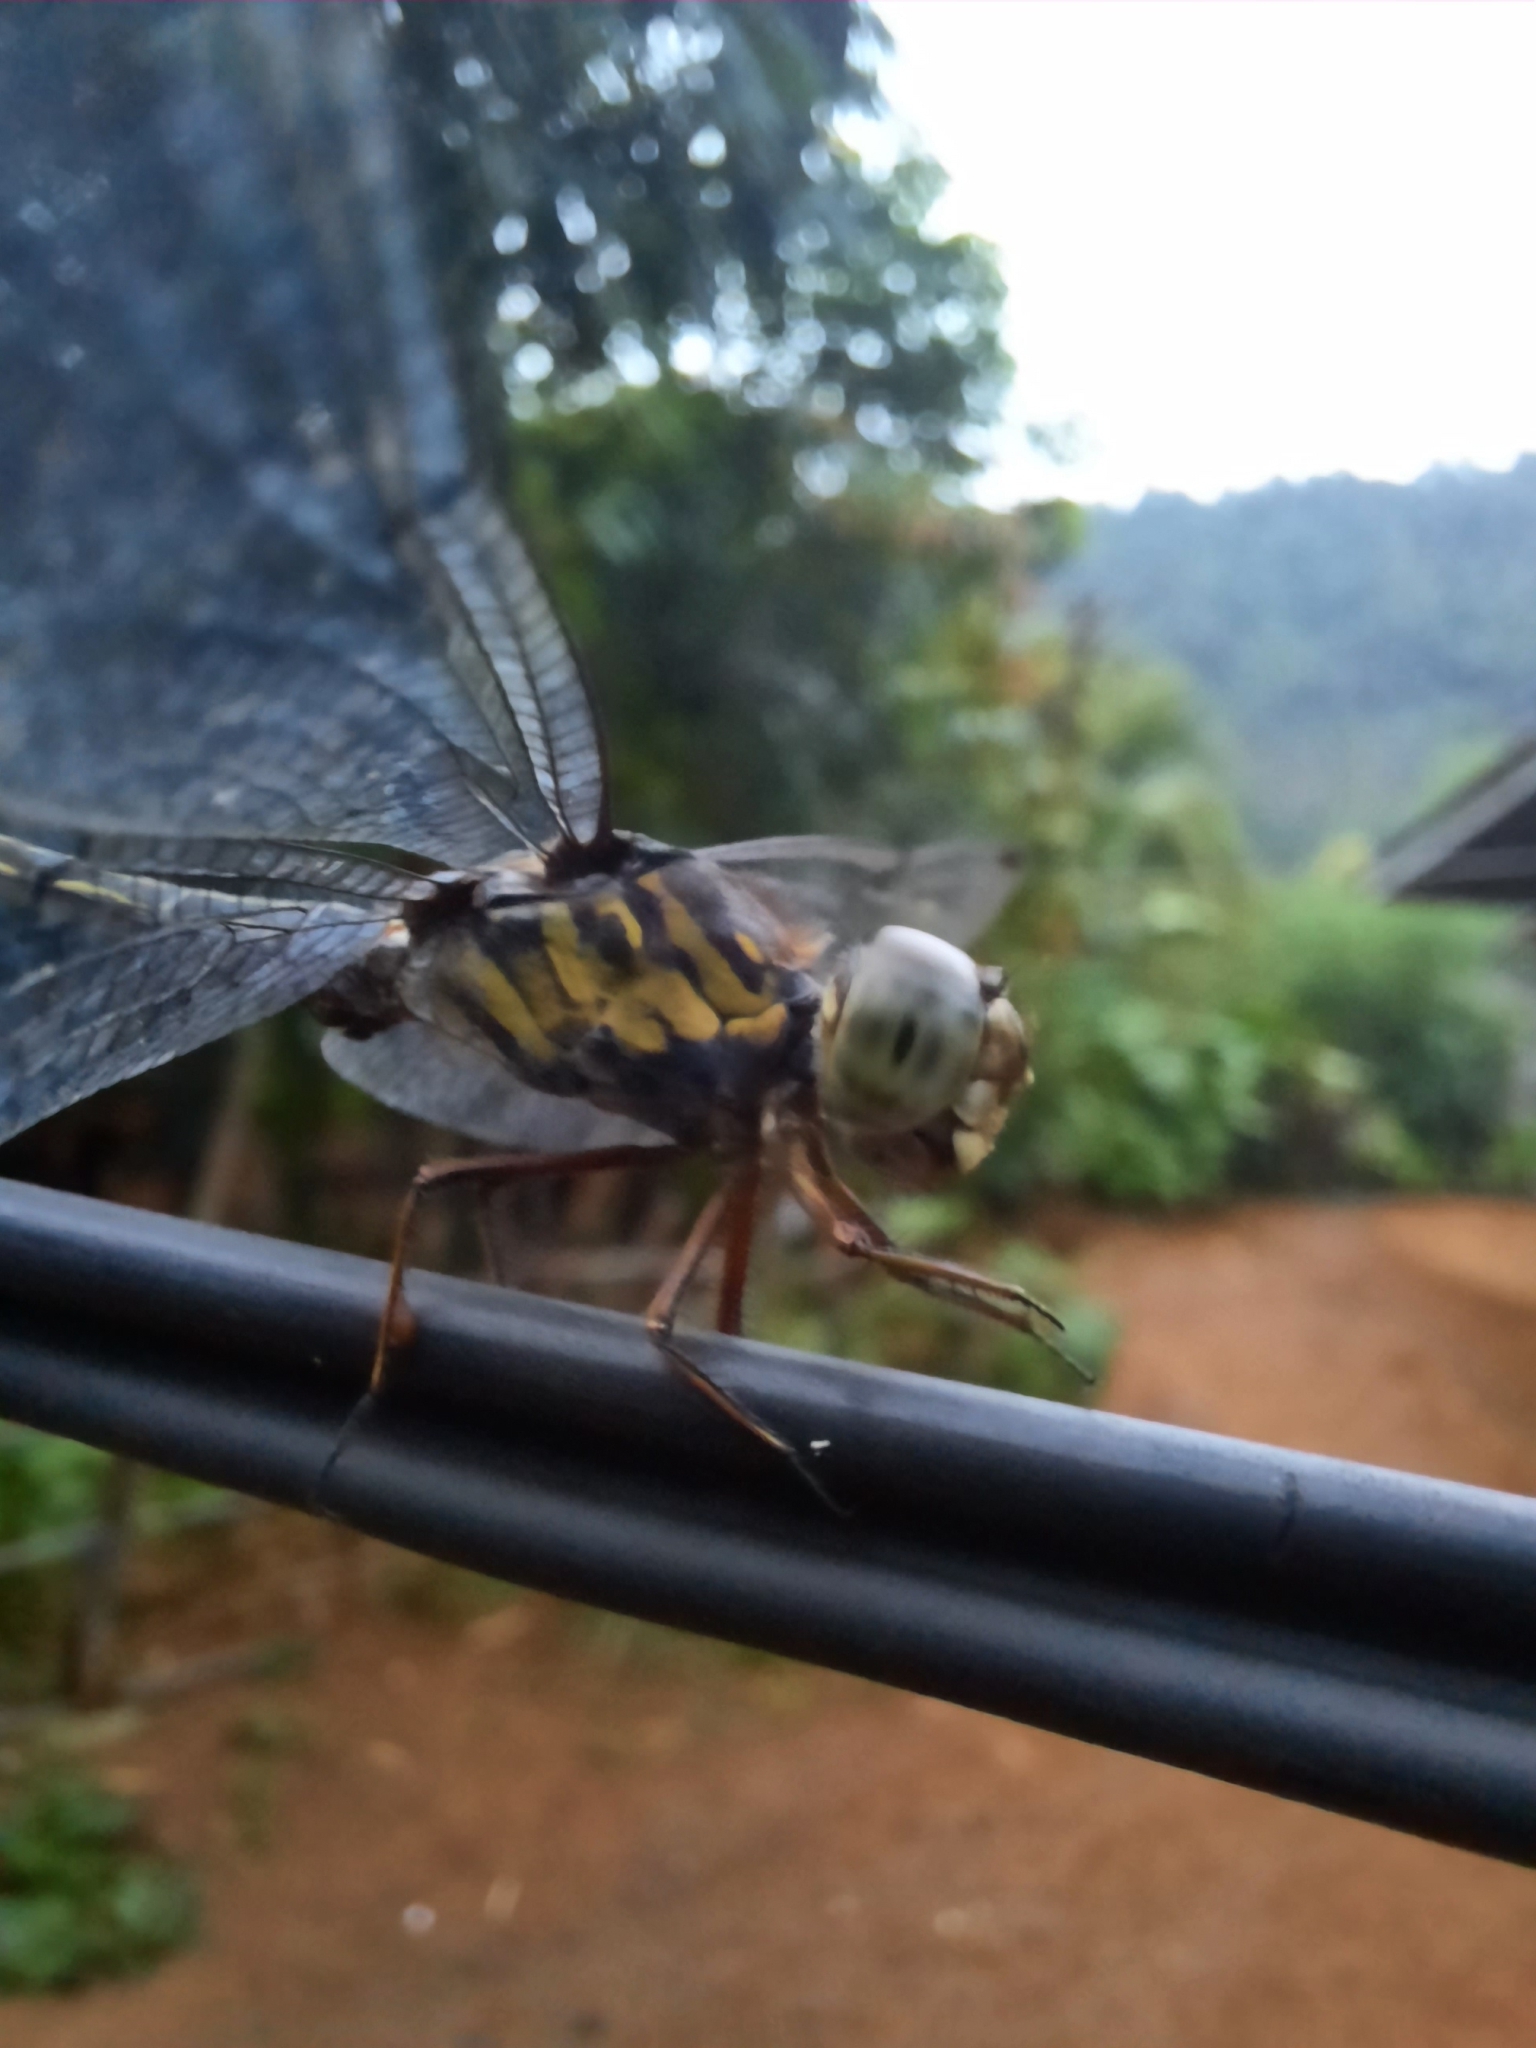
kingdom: Animalia
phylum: Arthropoda
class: Insecta
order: Odonata
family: Libellulidae
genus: Cratilla
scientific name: Cratilla lineata
